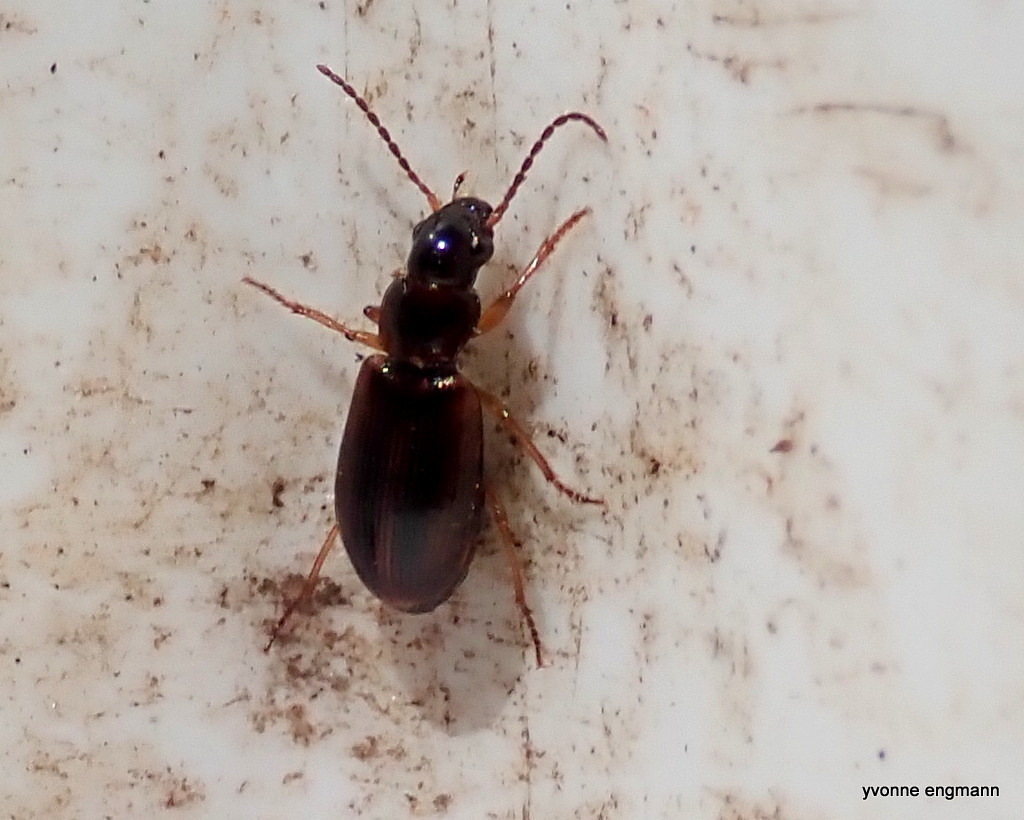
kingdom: Animalia
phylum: Arthropoda
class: Insecta
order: Coleoptera
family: Carabidae
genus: Dicheirotrichus
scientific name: Dicheirotrichus placidus
